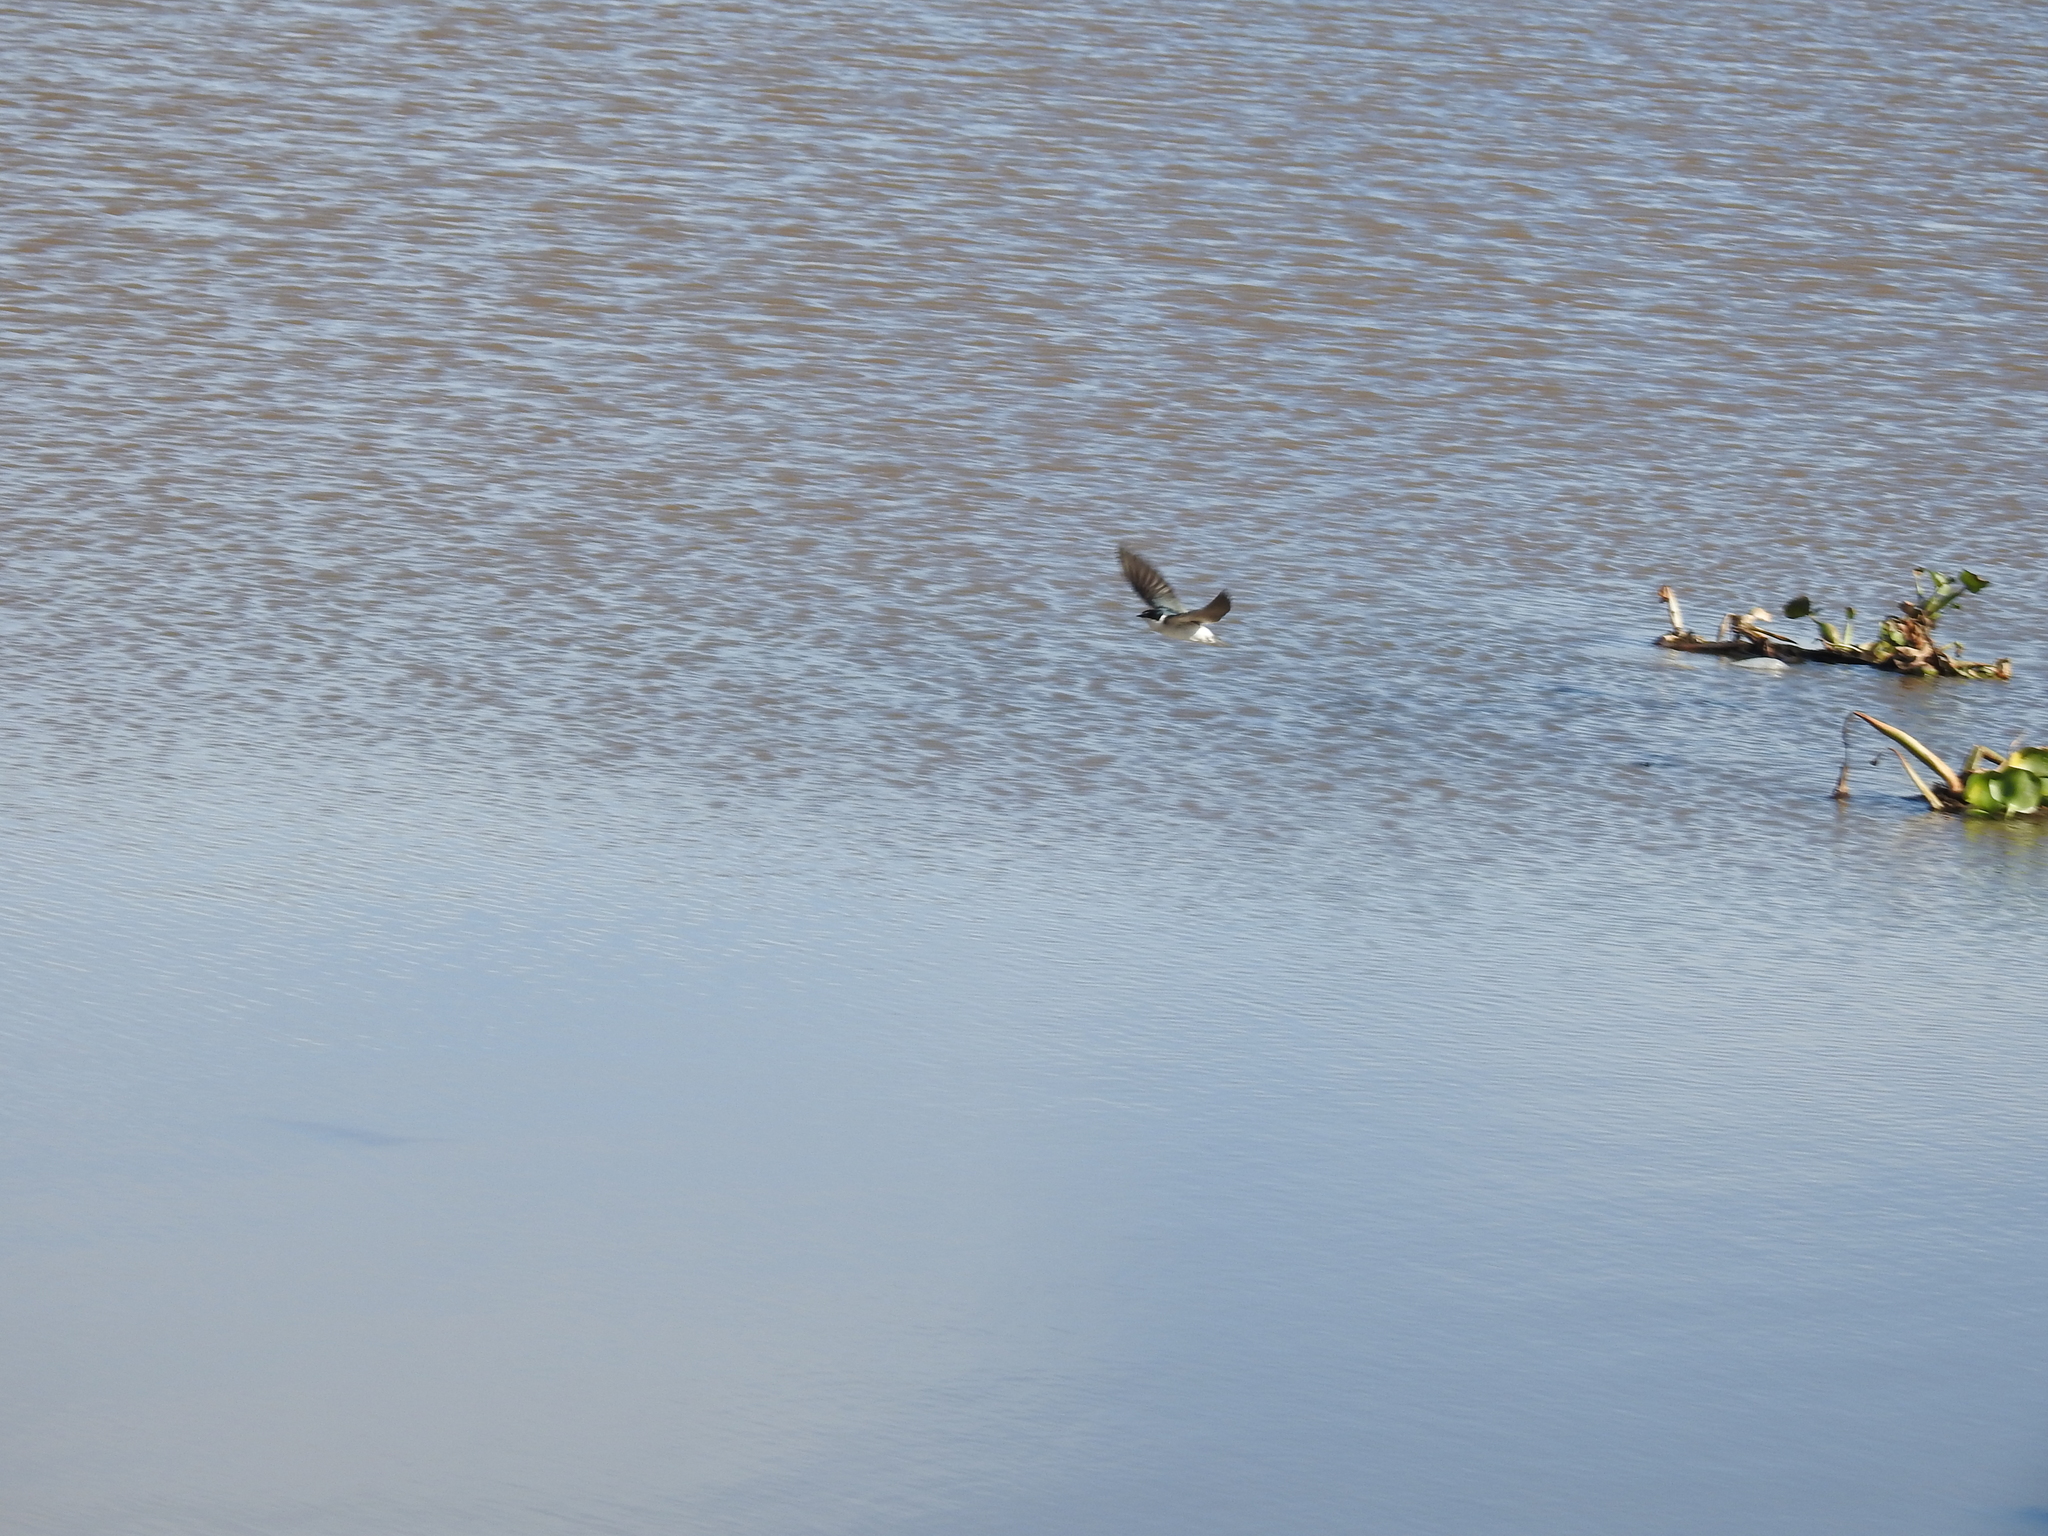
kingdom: Animalia
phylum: Chordata
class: Aves
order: Passeriformes
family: Hirundinidae
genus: Tachycineta
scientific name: Tachycineta leucorrhoa
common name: White-rumped swallow
